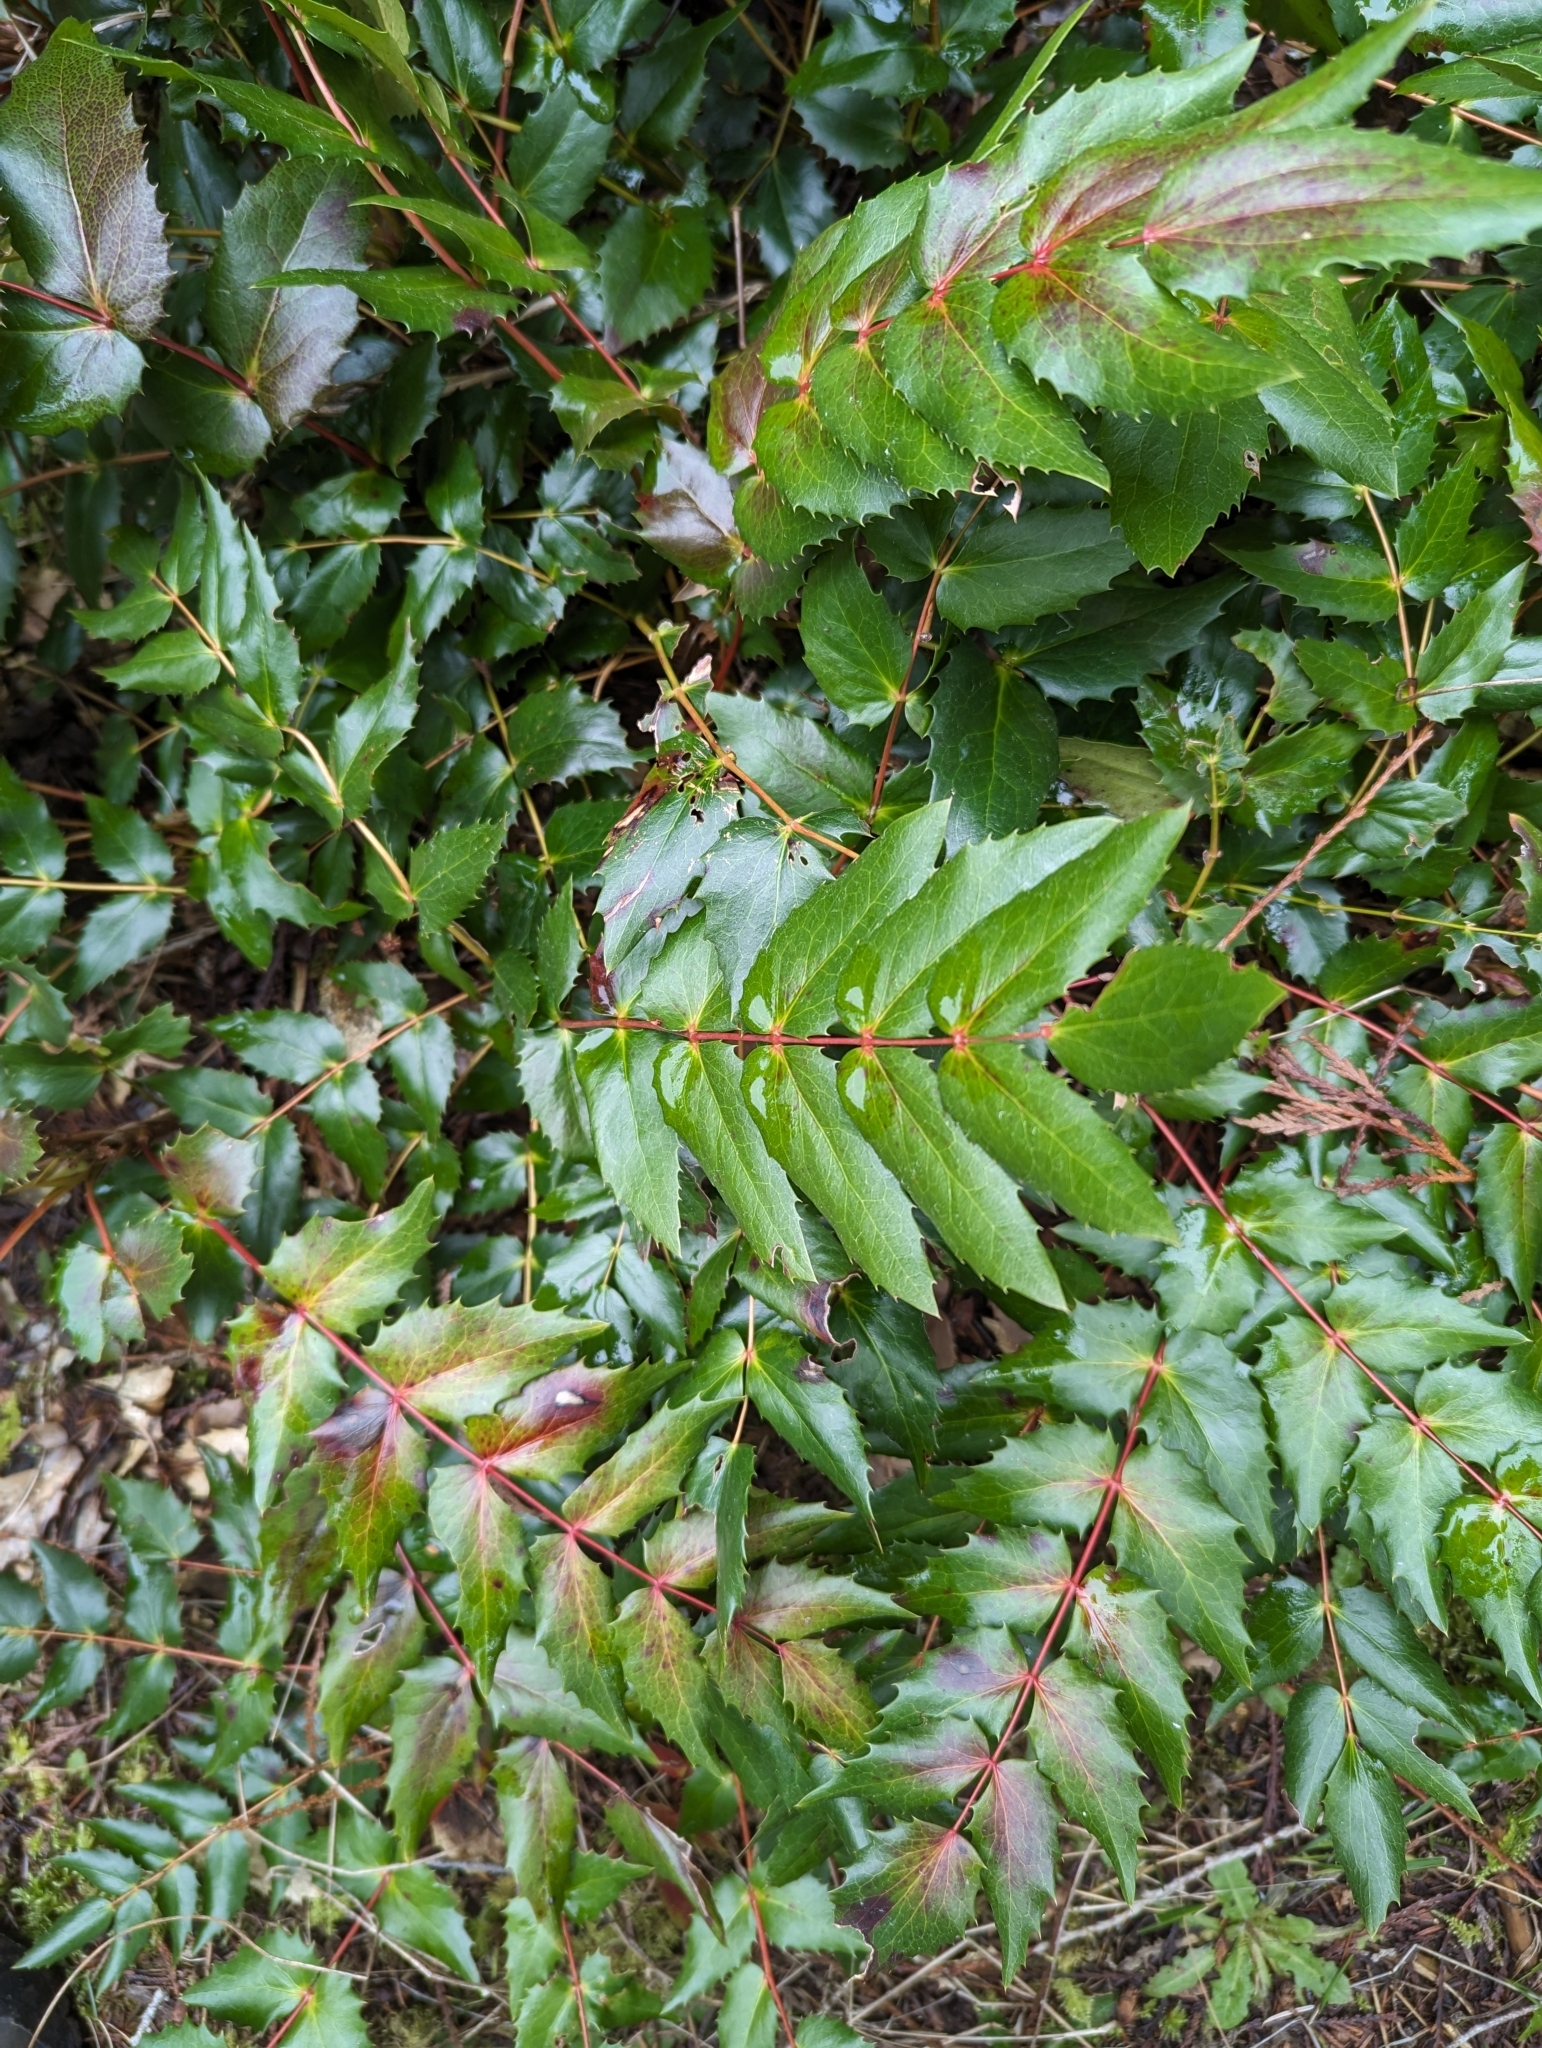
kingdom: Plantae
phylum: Tracheophyta
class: Magnoliopsida
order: Ranunculales
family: Berberidaceae
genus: Mahonia
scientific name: Mahonia nervosa
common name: Cascade oregon-grape
